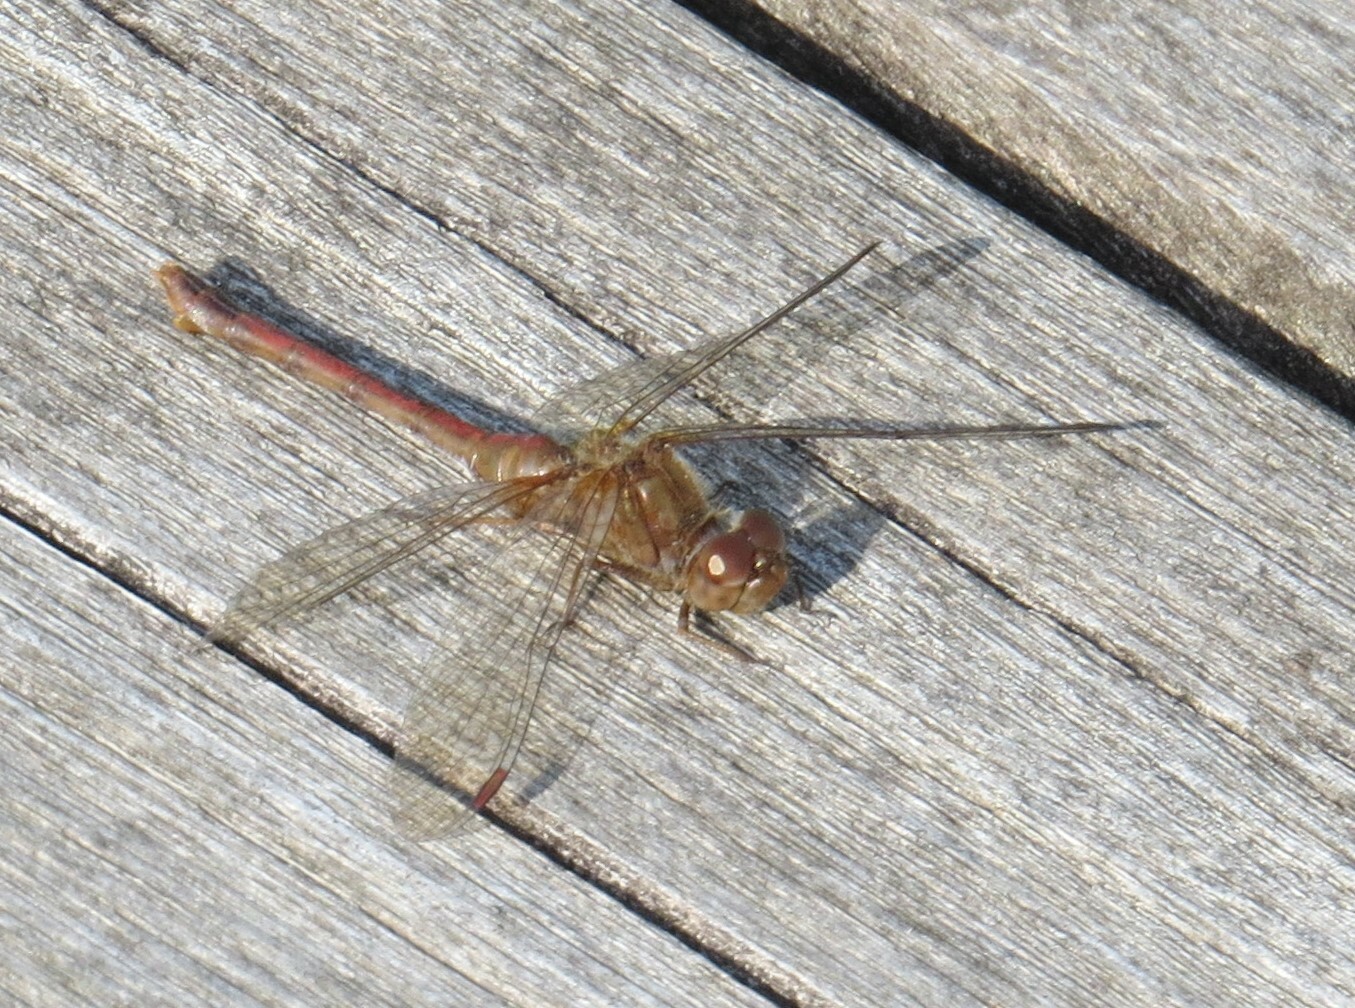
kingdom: Animalia
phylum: Arthropoda
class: Insecta
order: Odonata
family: Libellulidae
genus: Sympetrum
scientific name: Sympetrum vicinum
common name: Autumn meadowhawk
